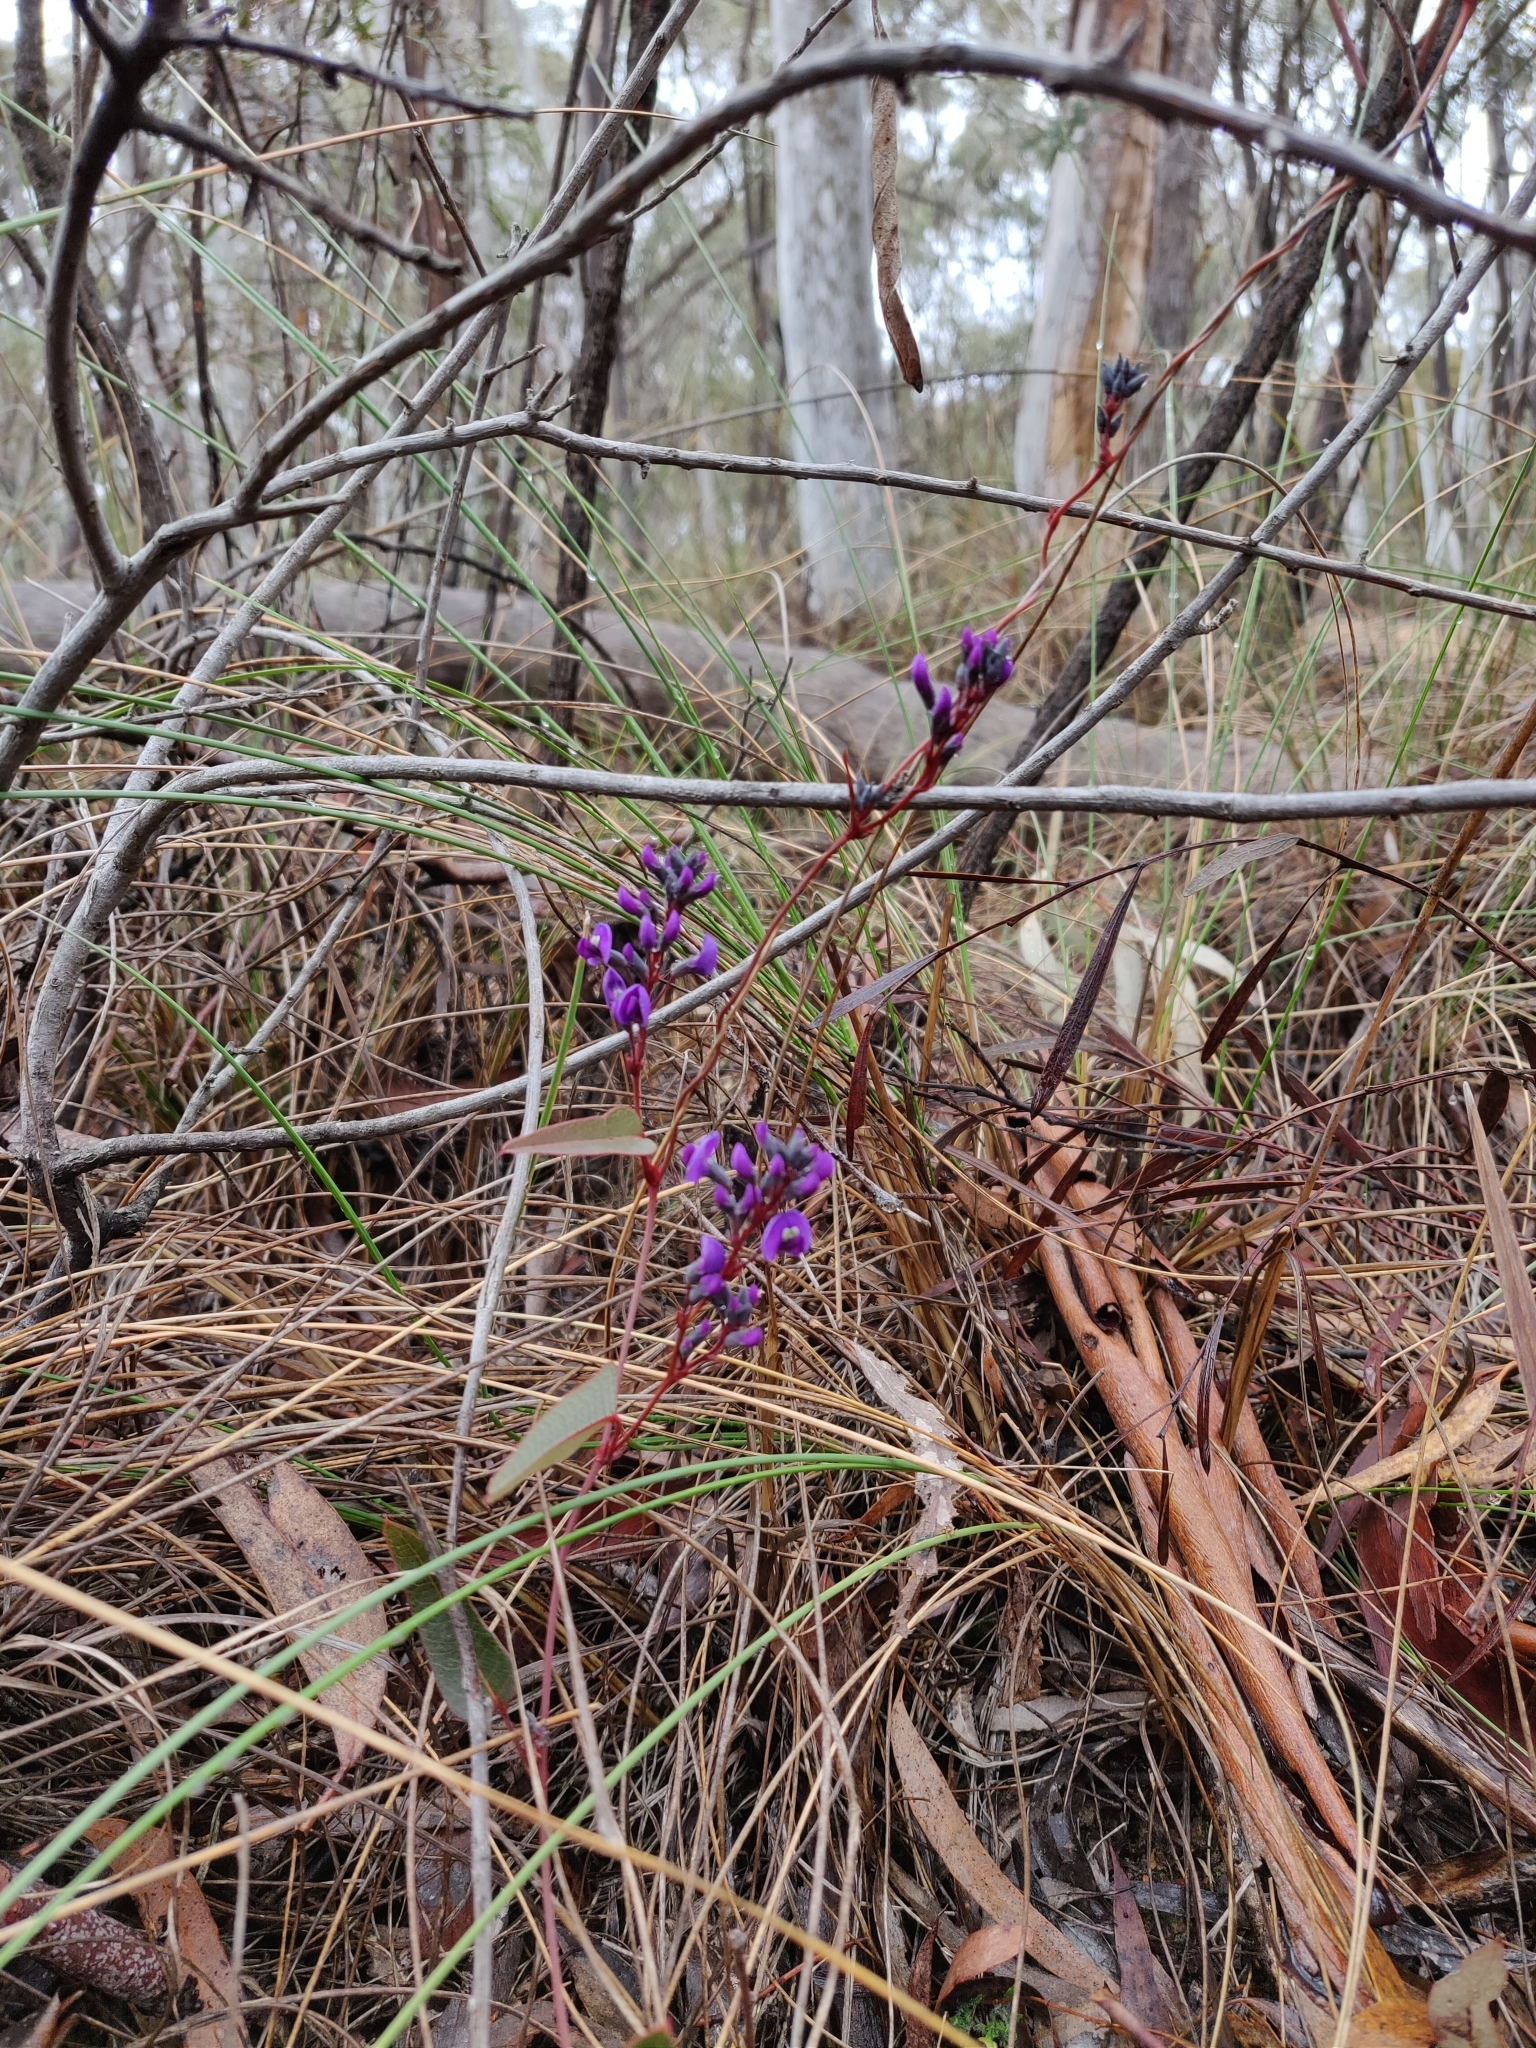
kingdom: Plantae
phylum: Tracheophyta
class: Magnoliopsida
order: Fabales
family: Fabaceae
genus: Hardenbergia
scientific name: Hardenbergia violacea
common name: Coral-pea
